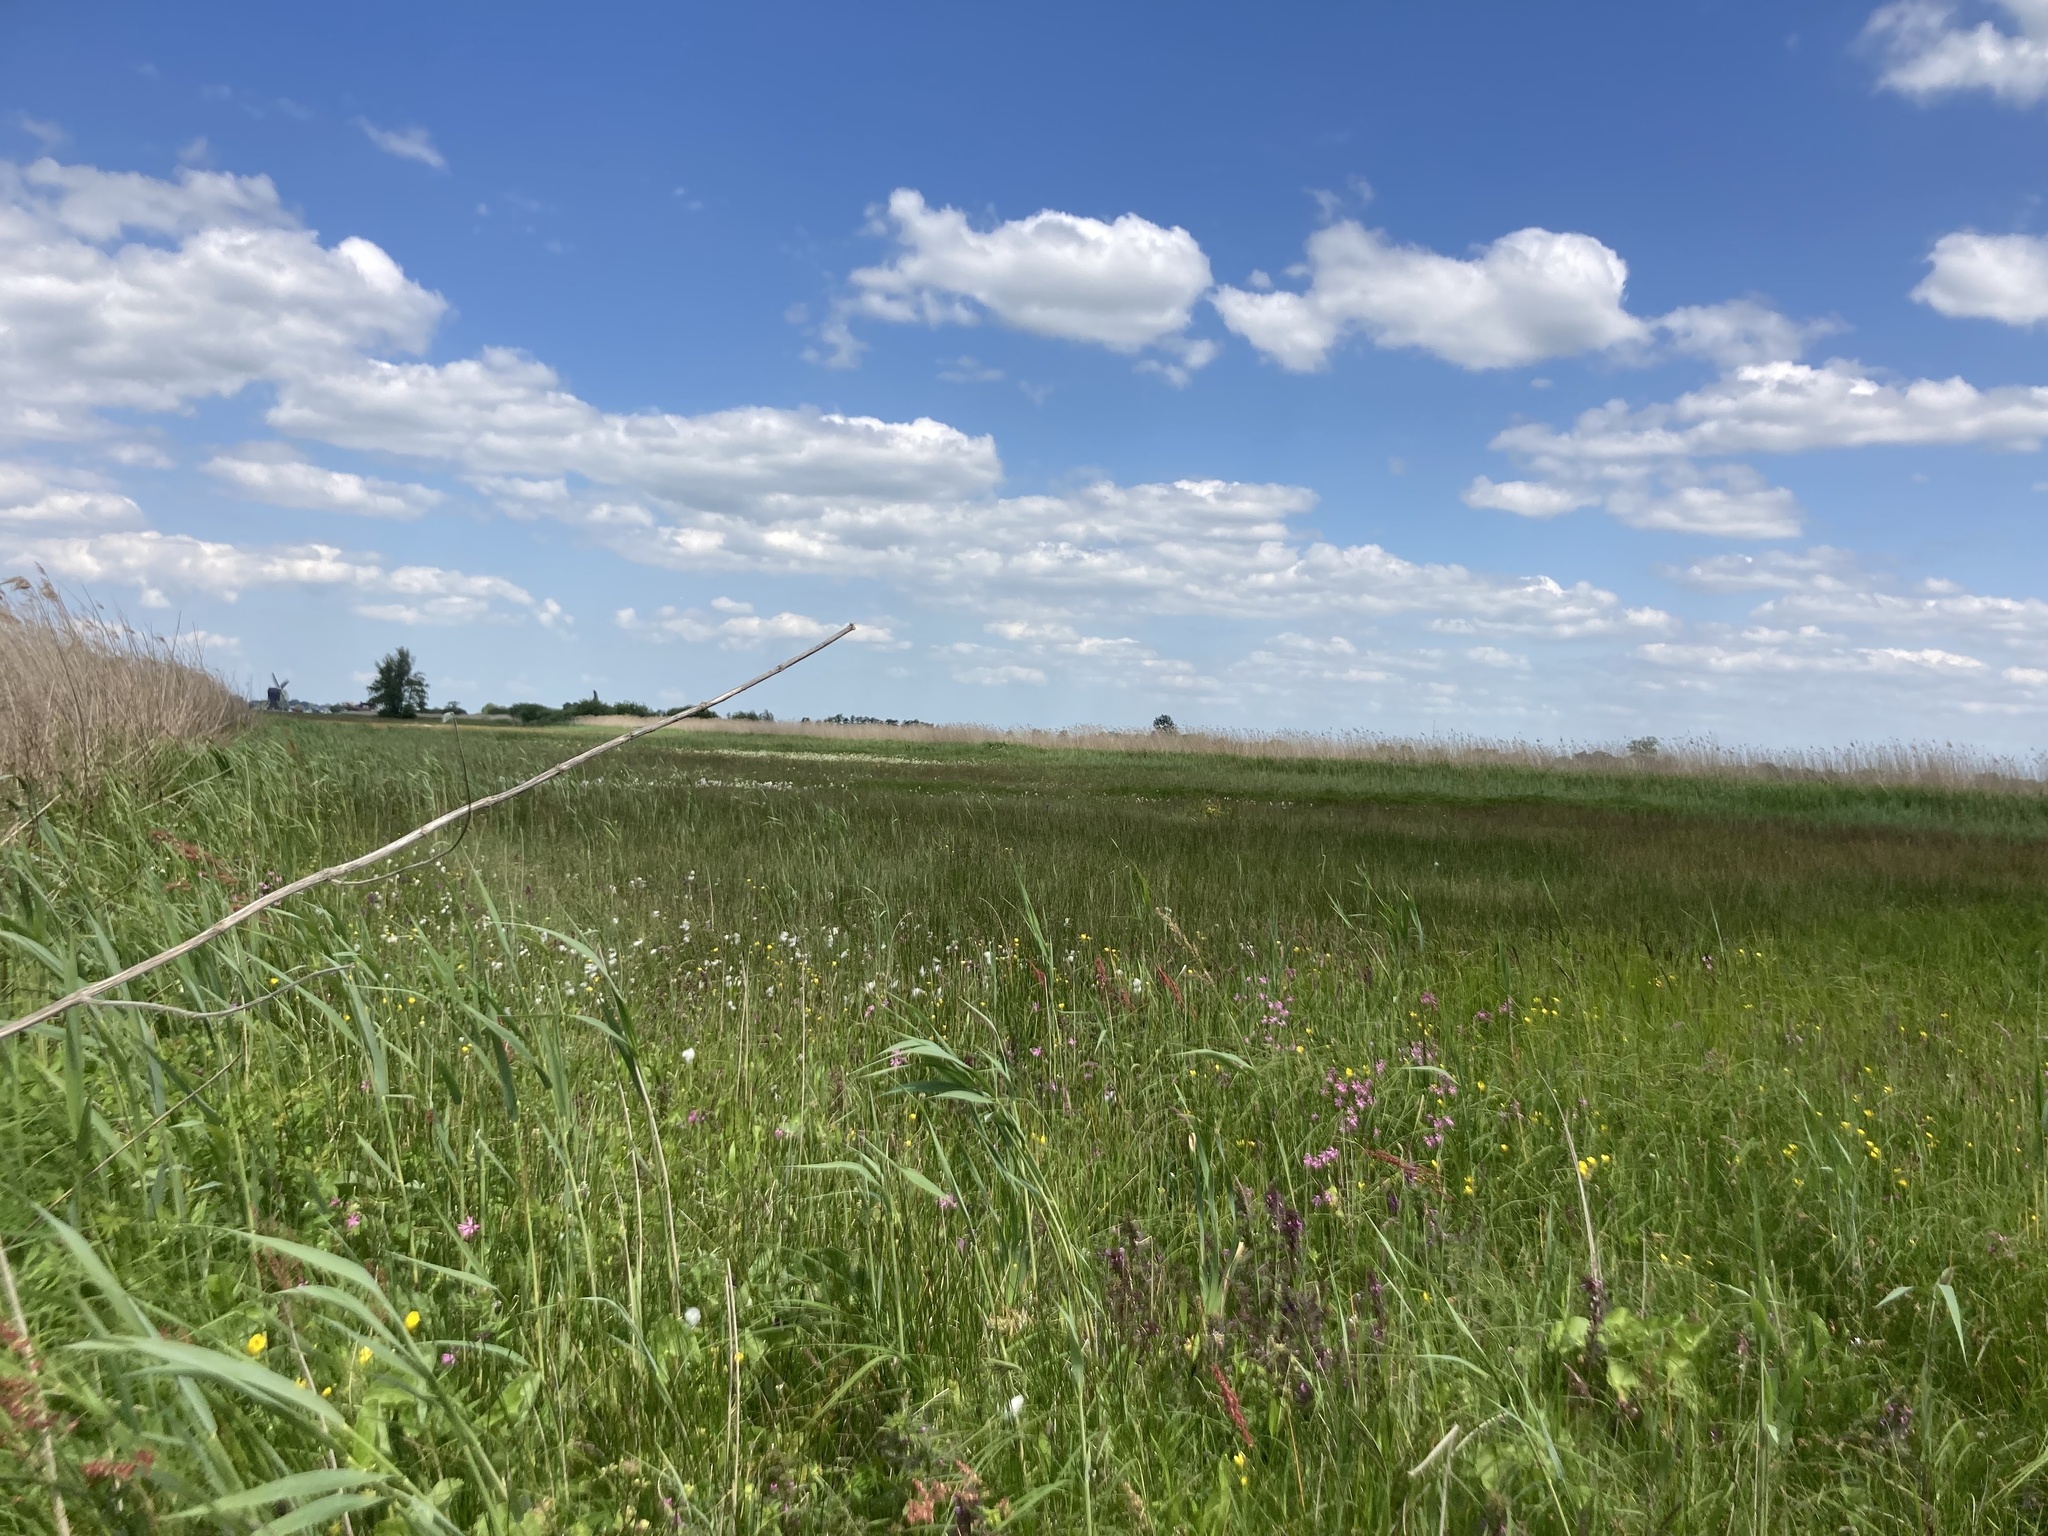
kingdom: Plantae
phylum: Tracheophyta
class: Magnoliopsida
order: Caryophyllales
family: Caryophyllaceae
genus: Silene
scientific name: Silene flos-cuculi
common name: Ragged-robin
